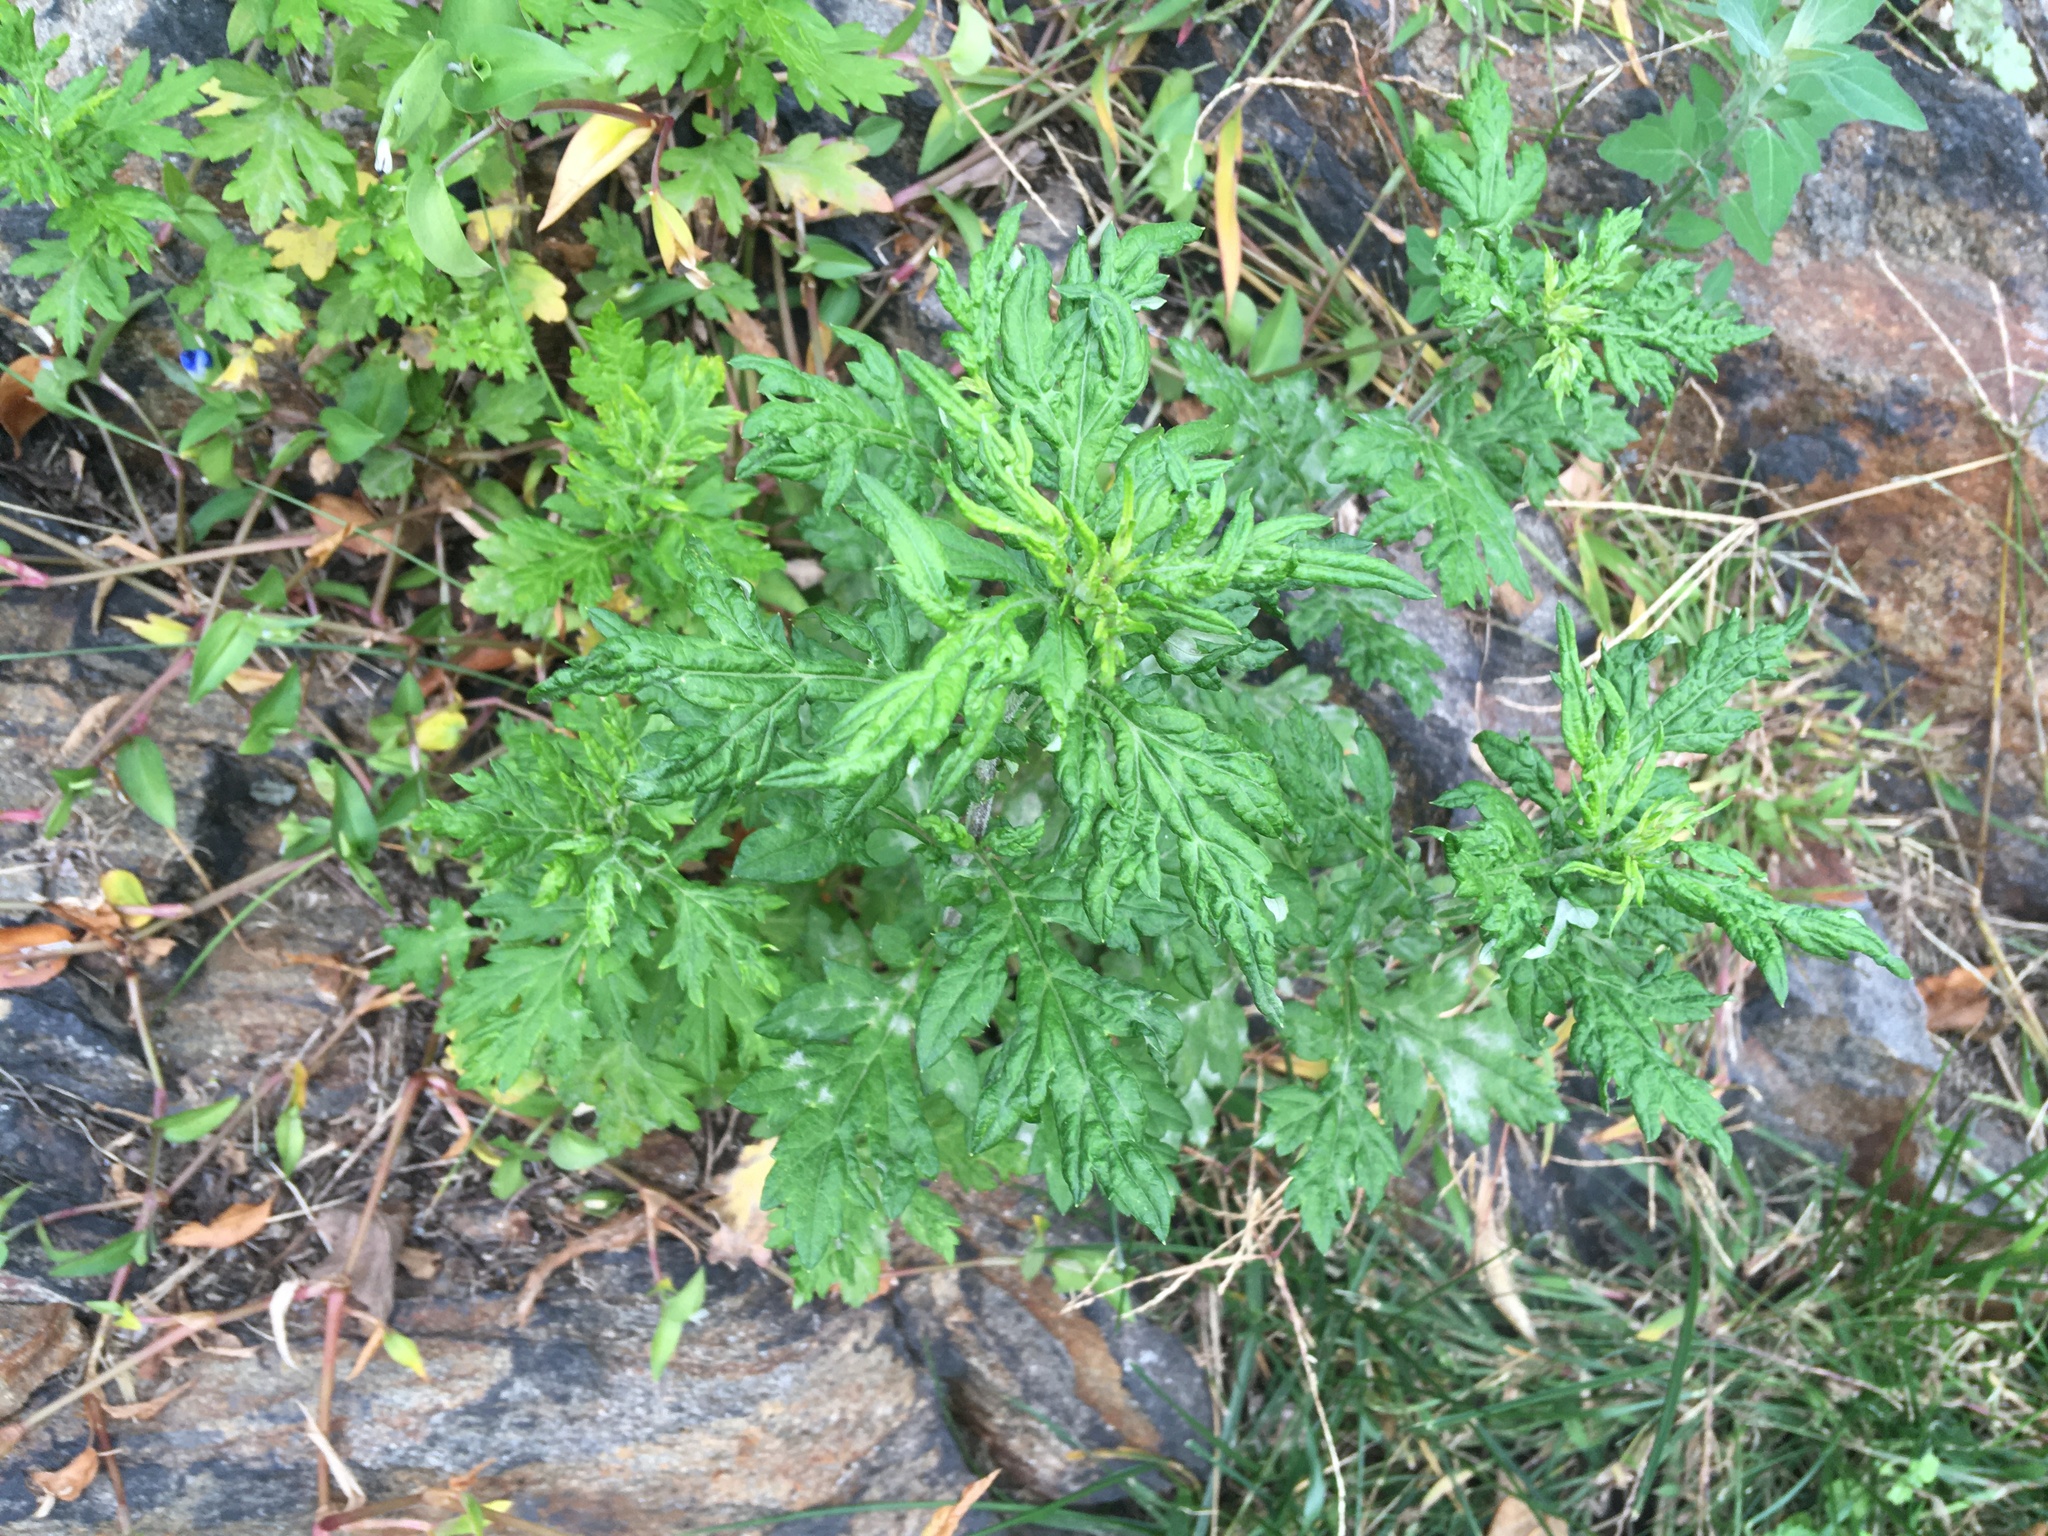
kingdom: Plantae
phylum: Tracheophyta
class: Magnoliopsida
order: Asterales
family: Asteraceae
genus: Artemisia
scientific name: Artemisia vulgaris
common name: Mugwort
